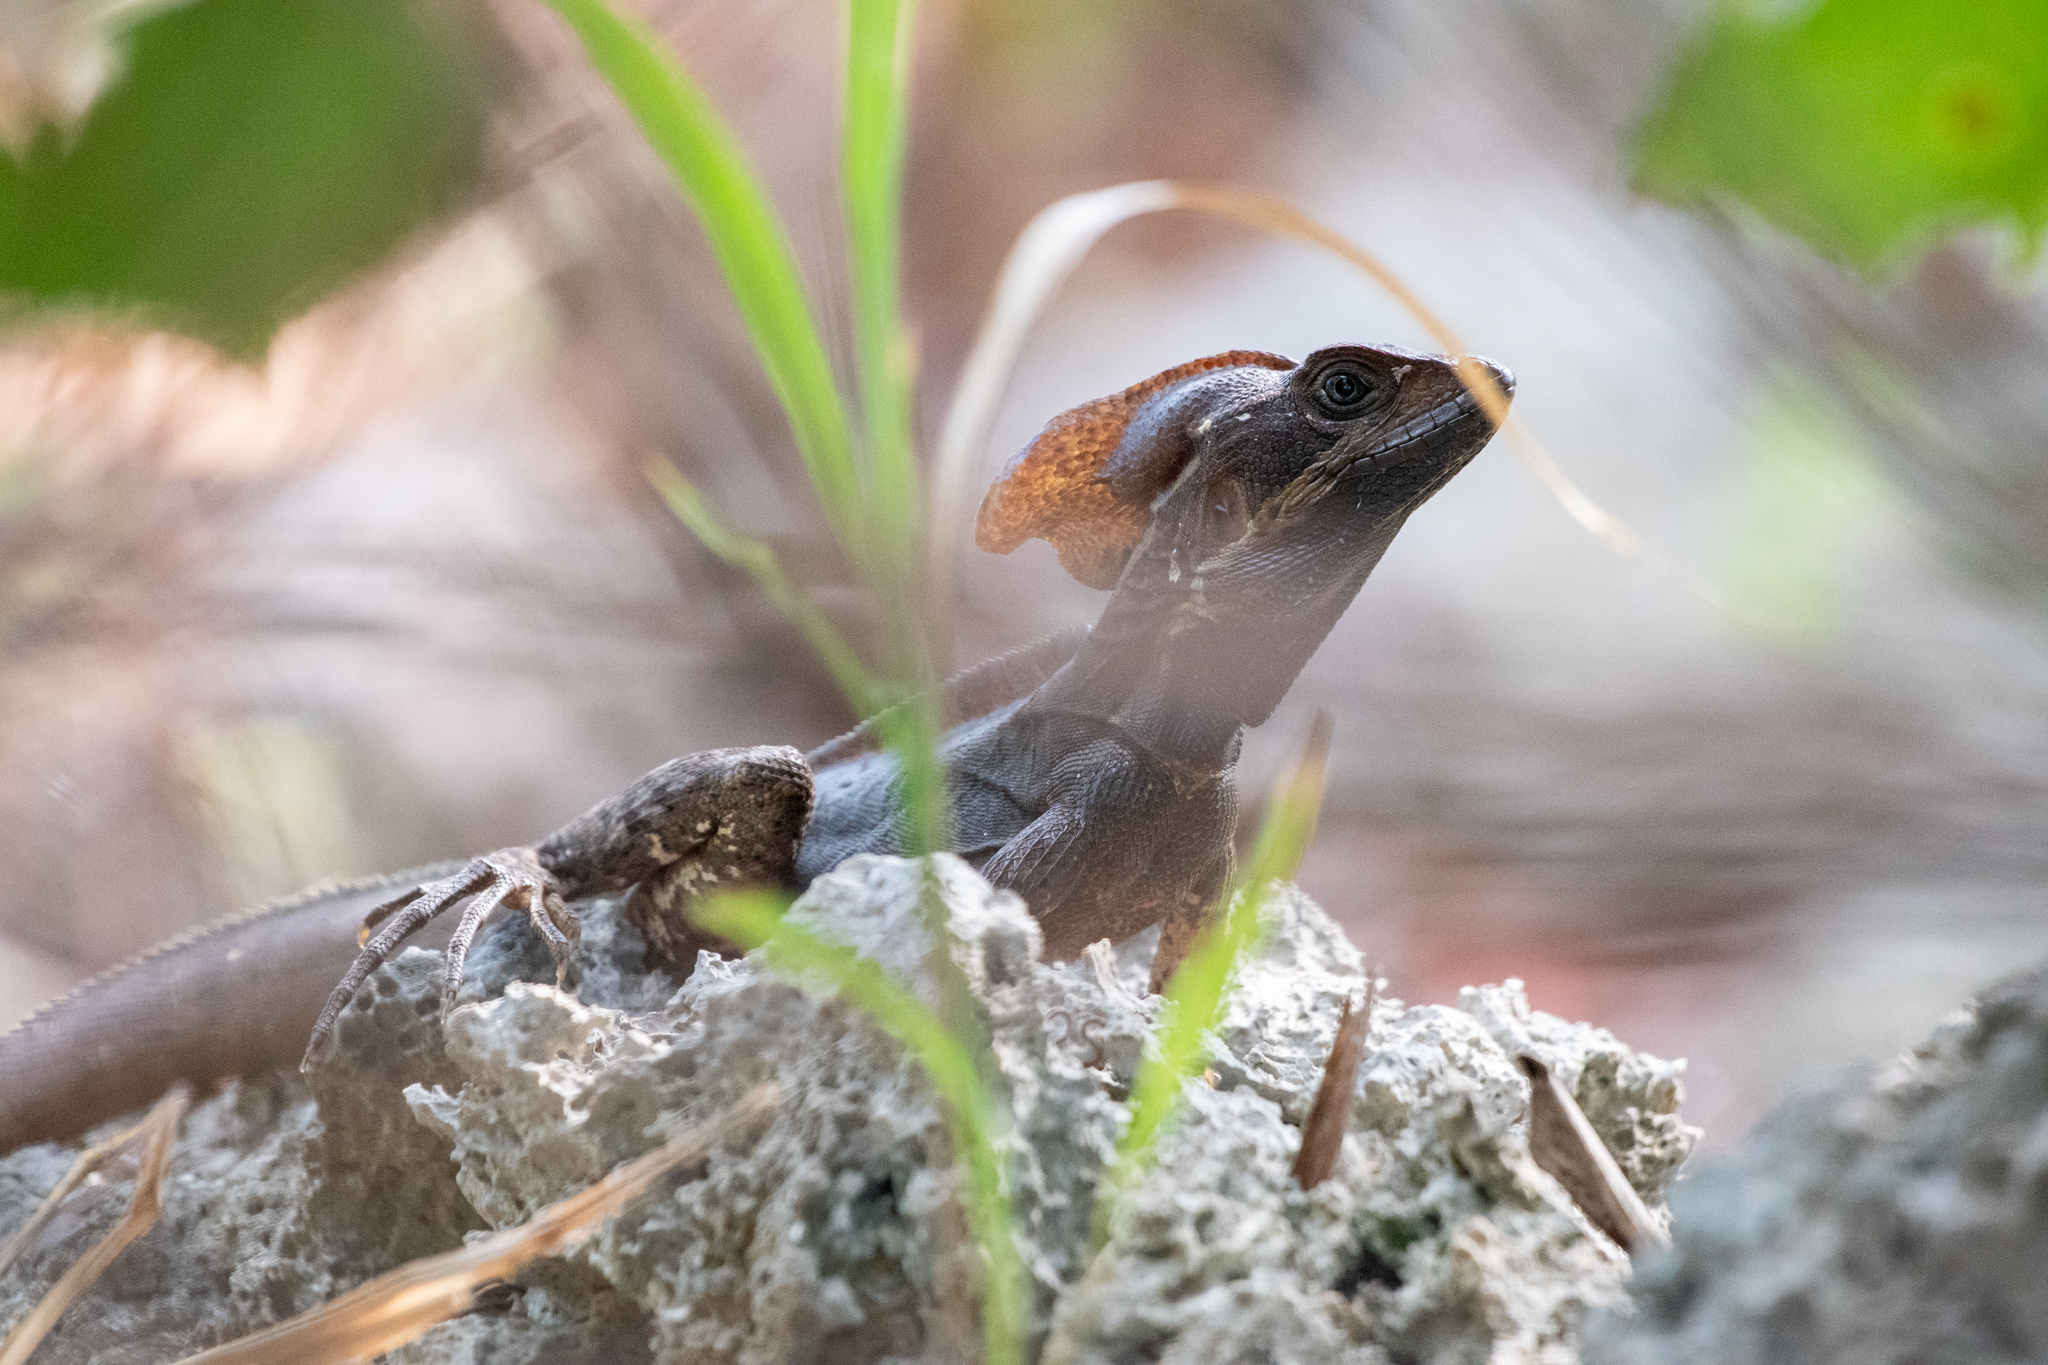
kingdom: Animalia
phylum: Chordata
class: Squamata
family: Corytophanidae
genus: Basiliscus
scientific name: Basiliscus vittatus
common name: Brown basilisk
